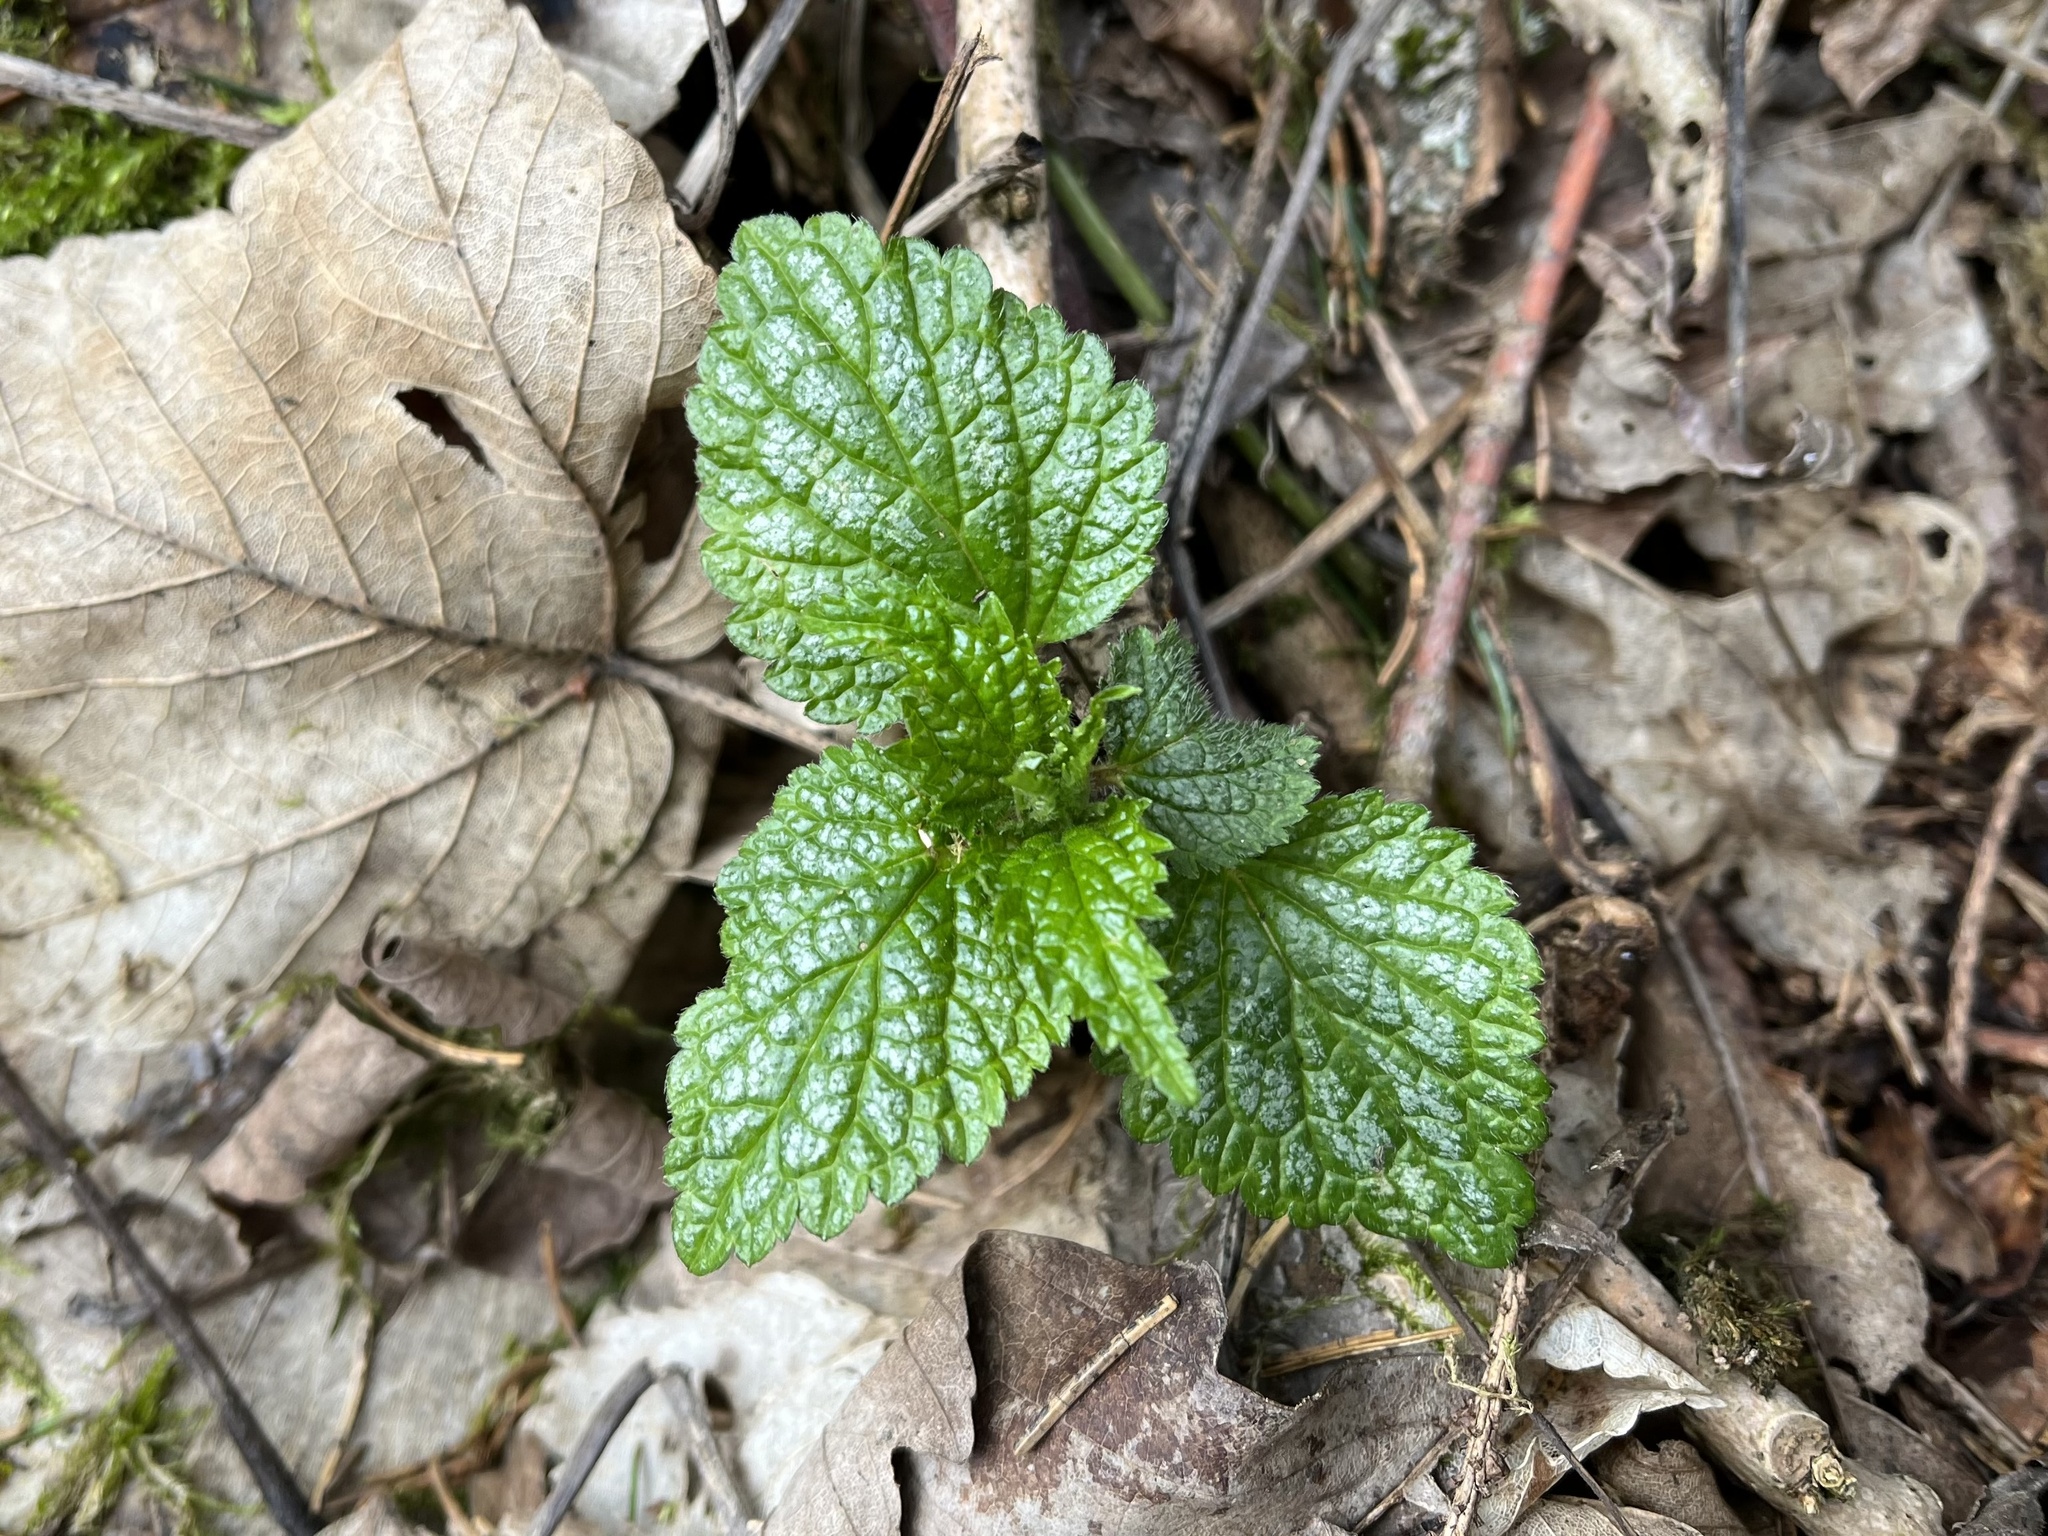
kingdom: Plantae
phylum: Tracheophyta
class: Magnoliopsida
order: Lamiales
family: Lamiaceae
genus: Lamium
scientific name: Lamium galeobdolon
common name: Yellow archangel
